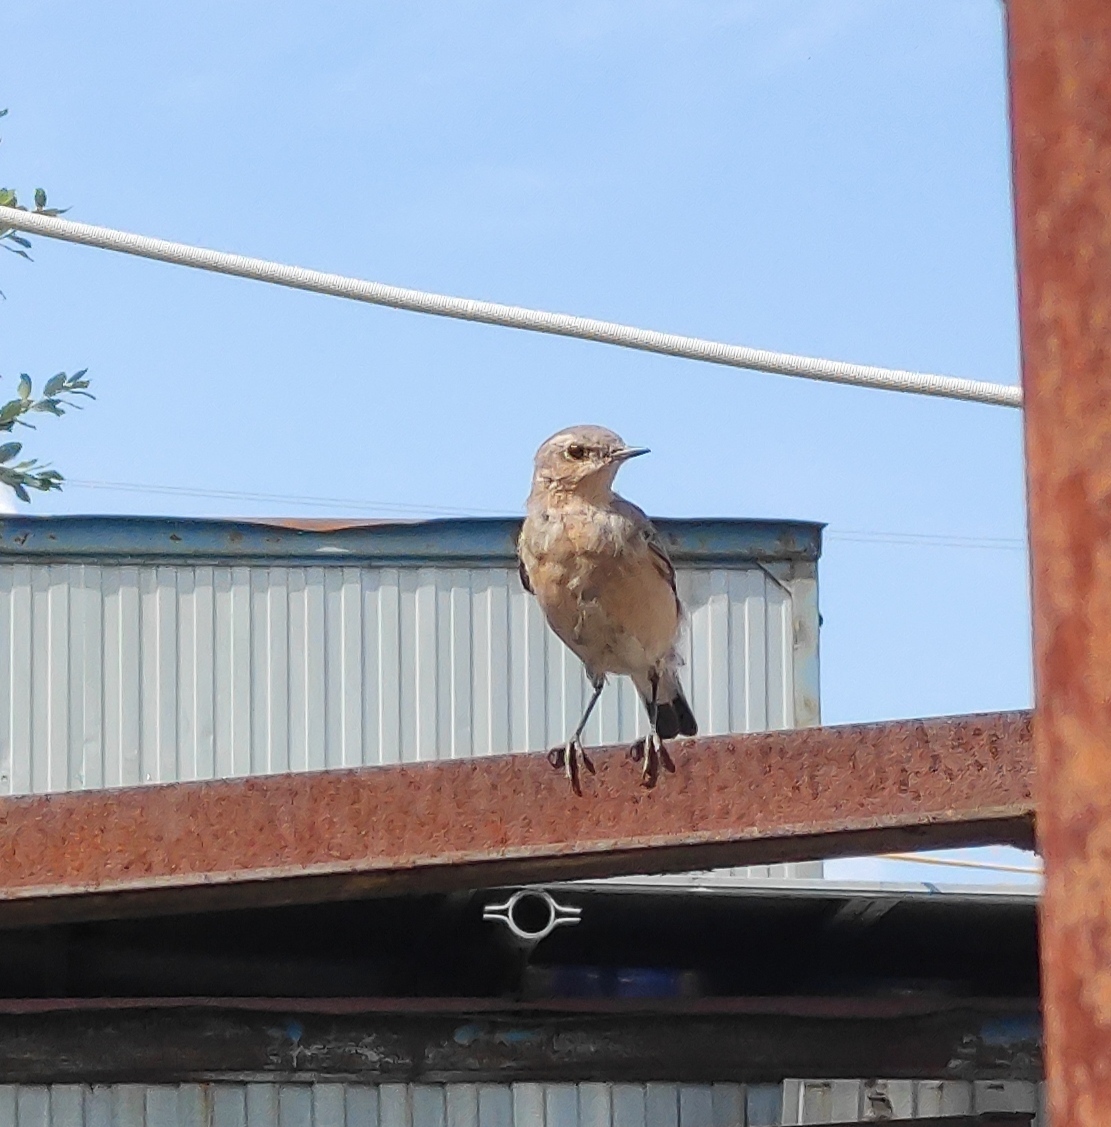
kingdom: Animalia
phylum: Chordata
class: Aves
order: Passeriformes
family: Muscicapidae
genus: Oenanthe
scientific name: Oenanthe oenanthe
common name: Northern wheatear
